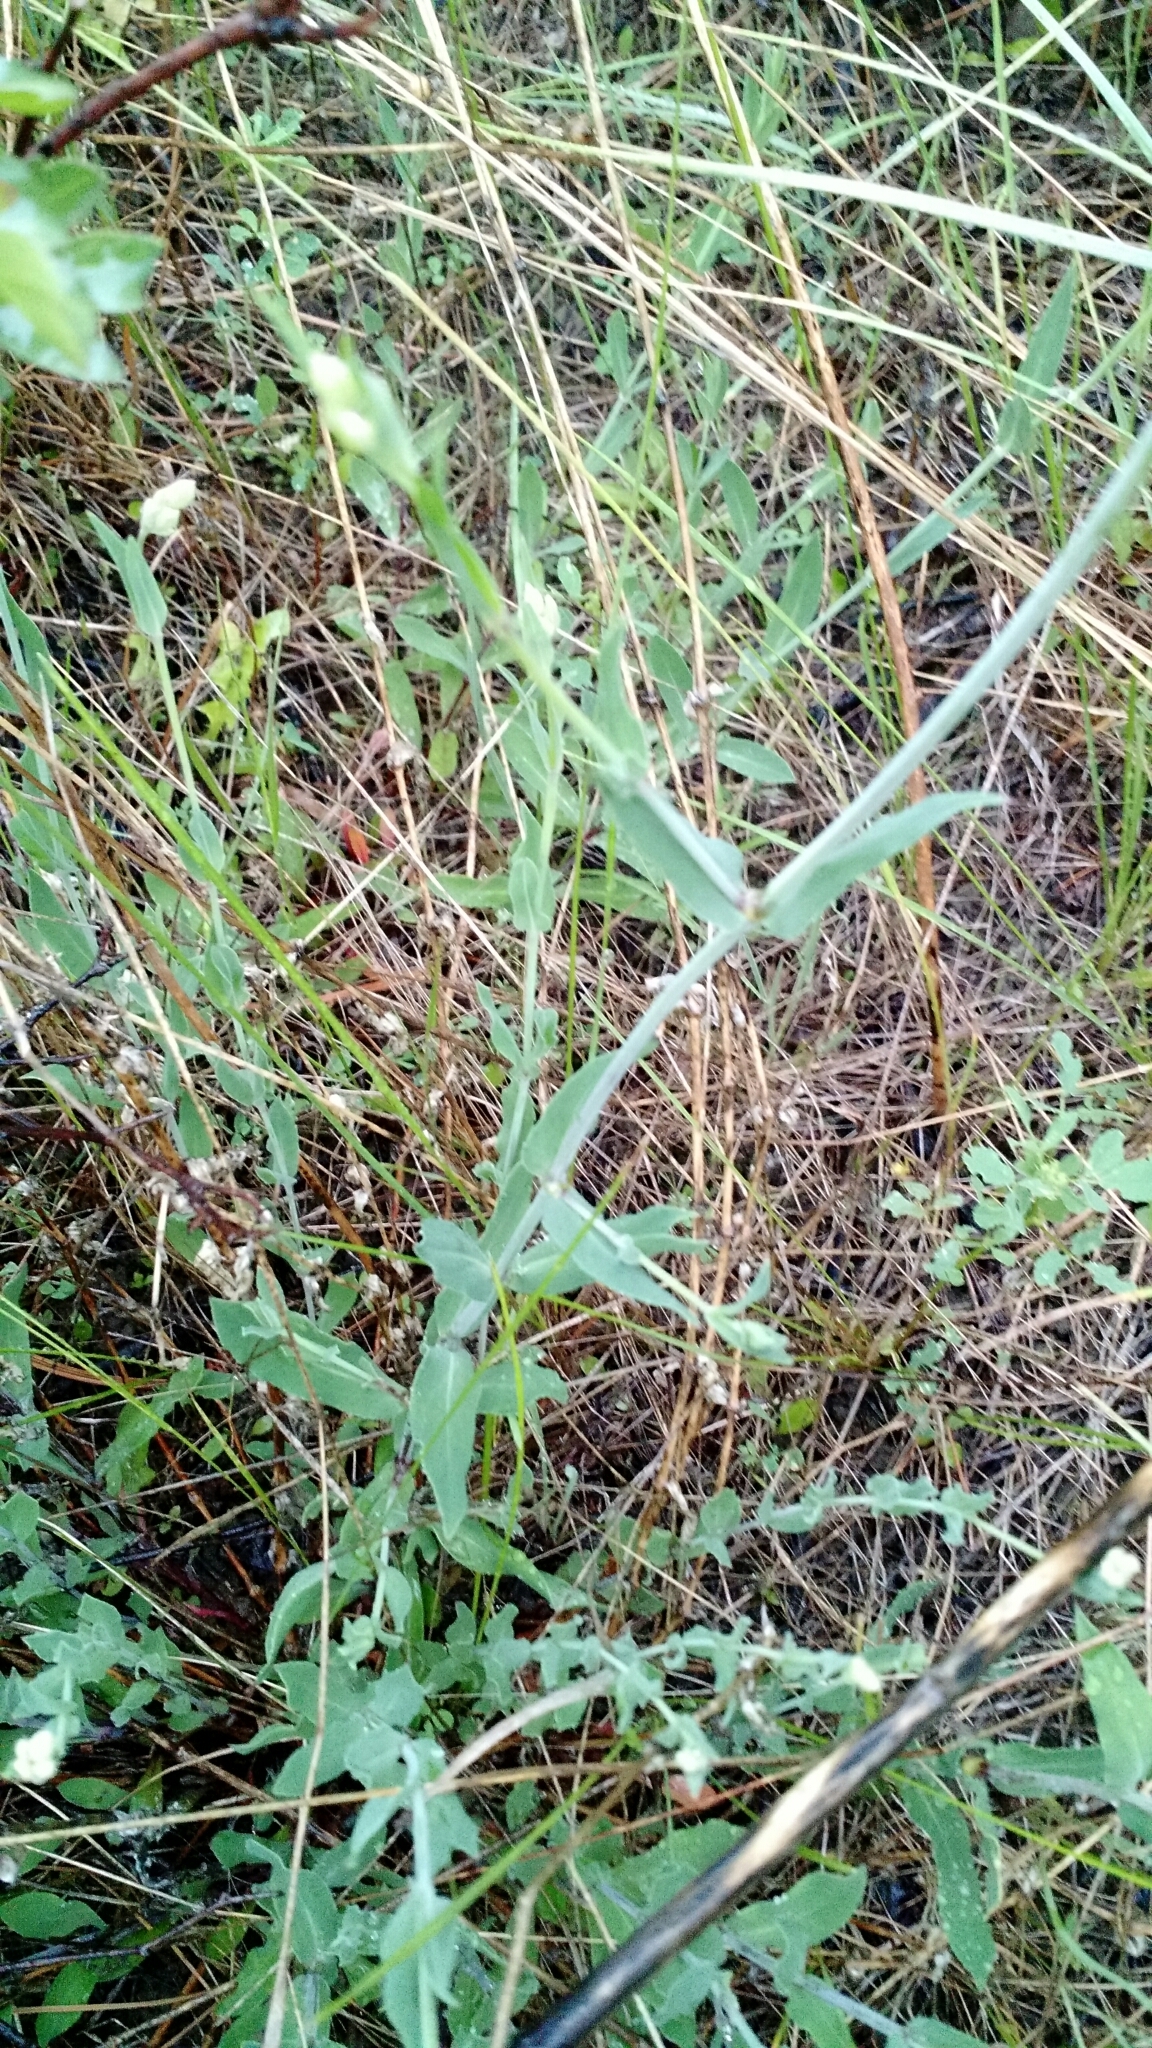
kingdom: Plantae
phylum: Tracheophyta
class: Magnoliopsida
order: Caryophyllales
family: Caryophyllaceae
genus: Silene
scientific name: Silene vulgaris
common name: Bladder campion
